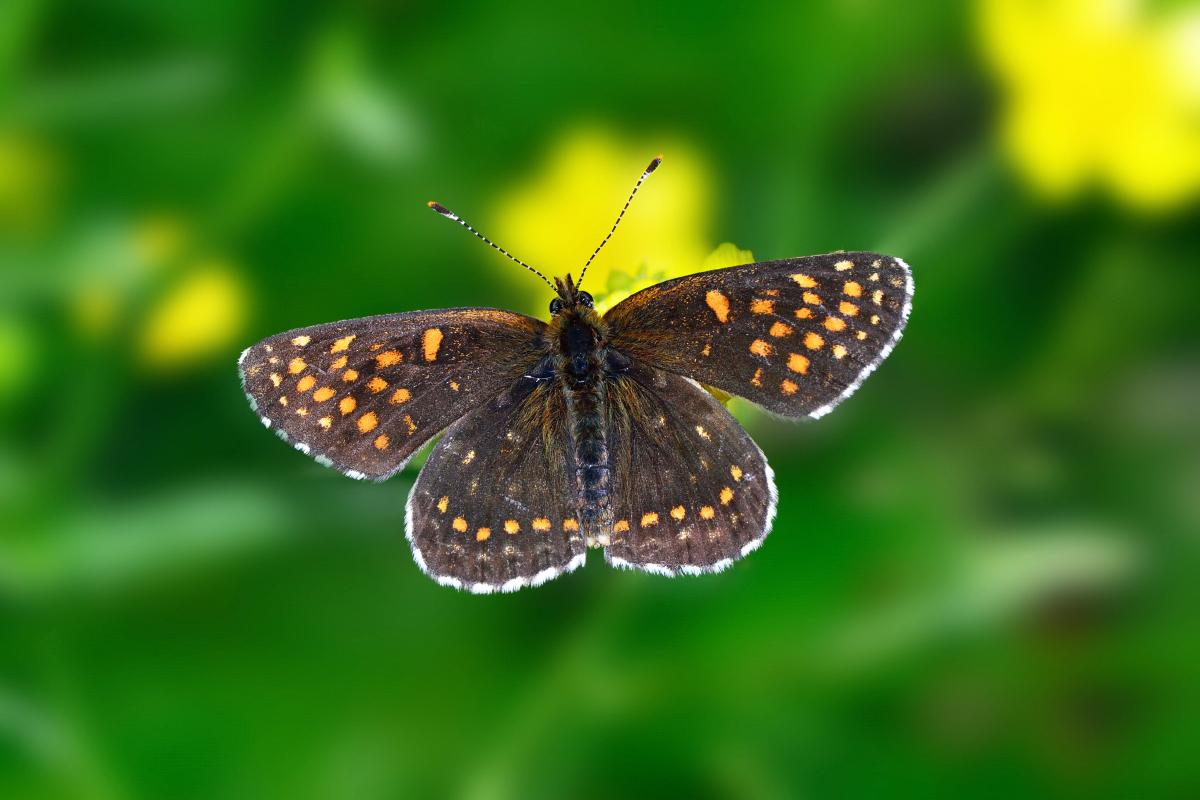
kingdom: Animalia
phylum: Arthropoda
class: Insecta
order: Lepidoptera
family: Nymphalidae
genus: Melitaea
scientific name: Melitaea diamina
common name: False heath fritillary
